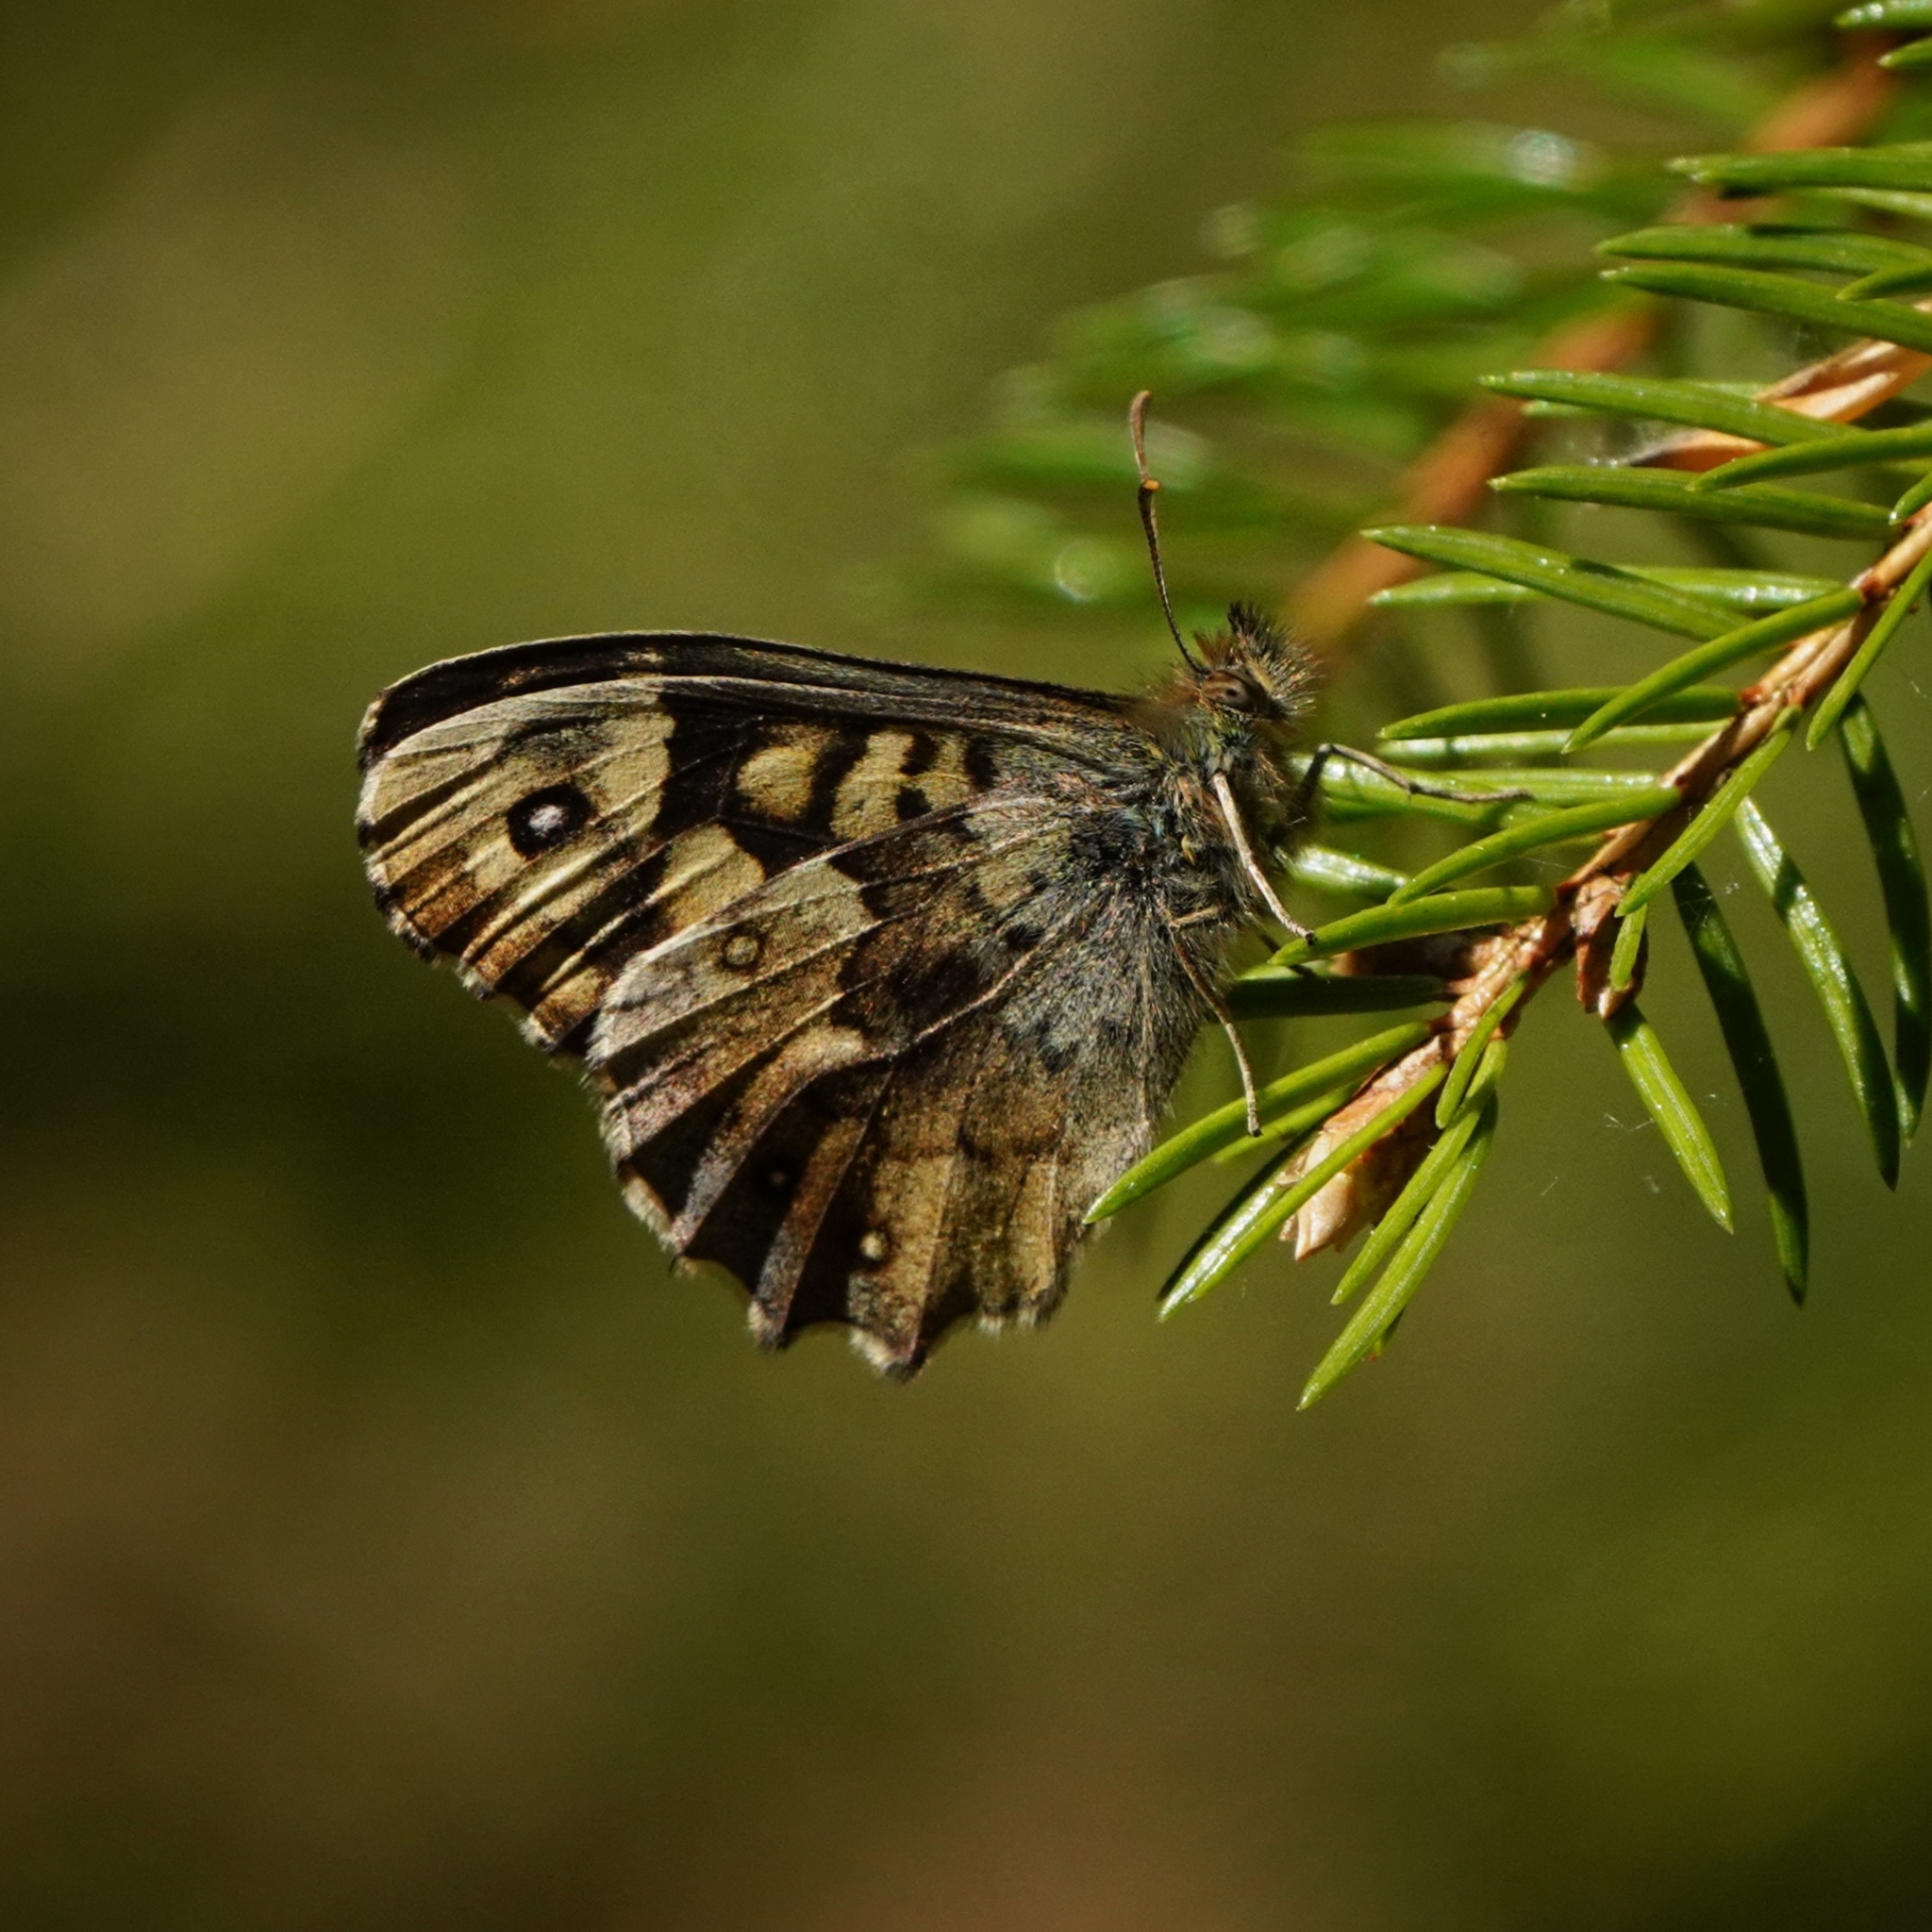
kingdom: Animalia
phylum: Arthropoda
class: Insecta
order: Lepidoptera
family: Nymphalidae
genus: Pararge
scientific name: Pararge aegeria
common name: Speckled wood
